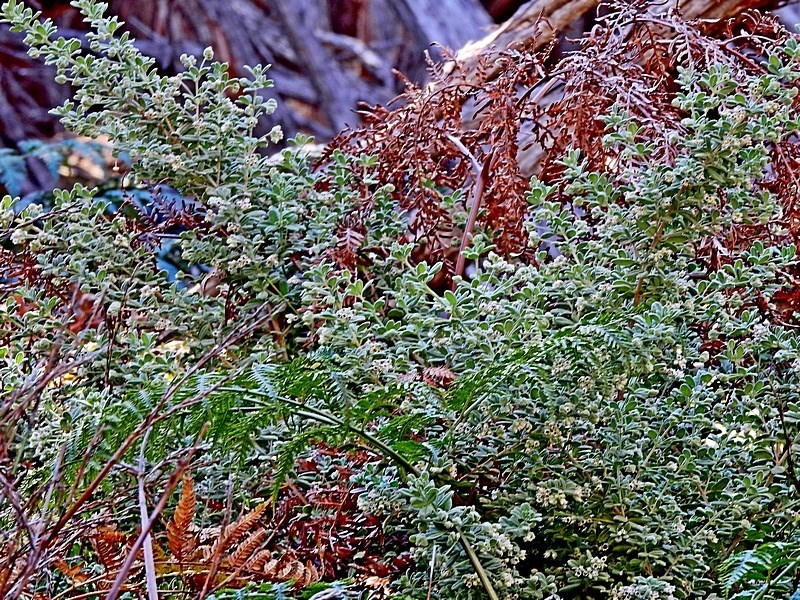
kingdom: Plantae
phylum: Tracheophyta
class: Magnoliopsida
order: Sapindales
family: Rutaceae
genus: Zieria
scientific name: Zieria littoralis
